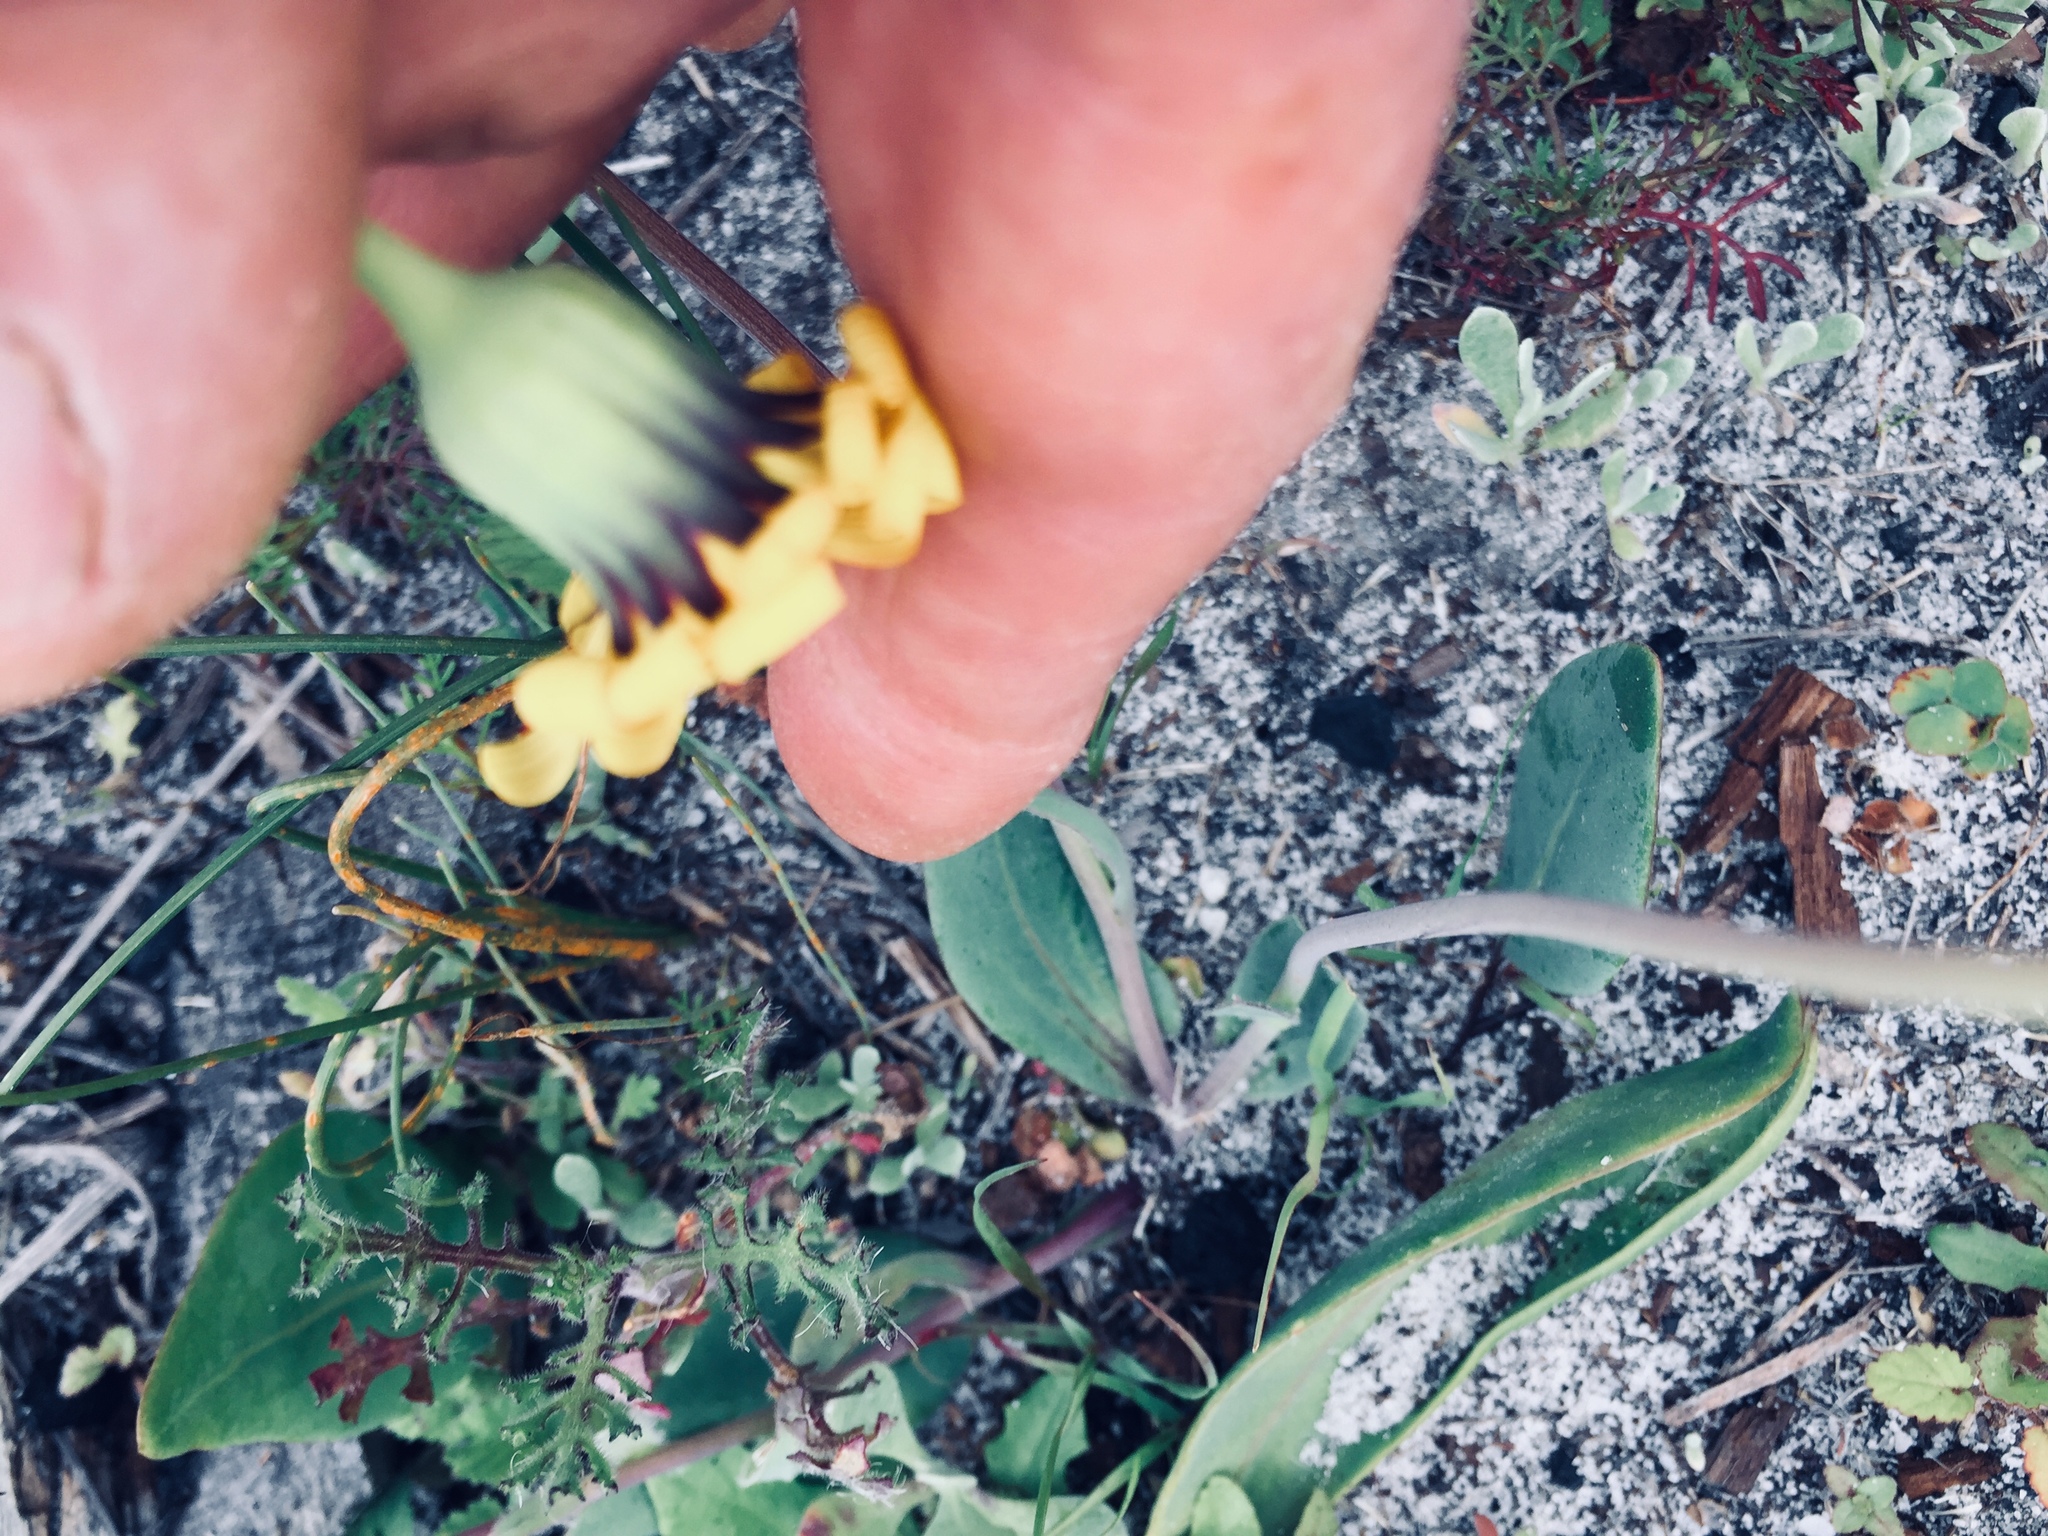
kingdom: Plantae
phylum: Tracheophyta
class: Magnoliopsida
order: Asterales
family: Asteraceae
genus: Othonna
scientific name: Othonna bulbosa
